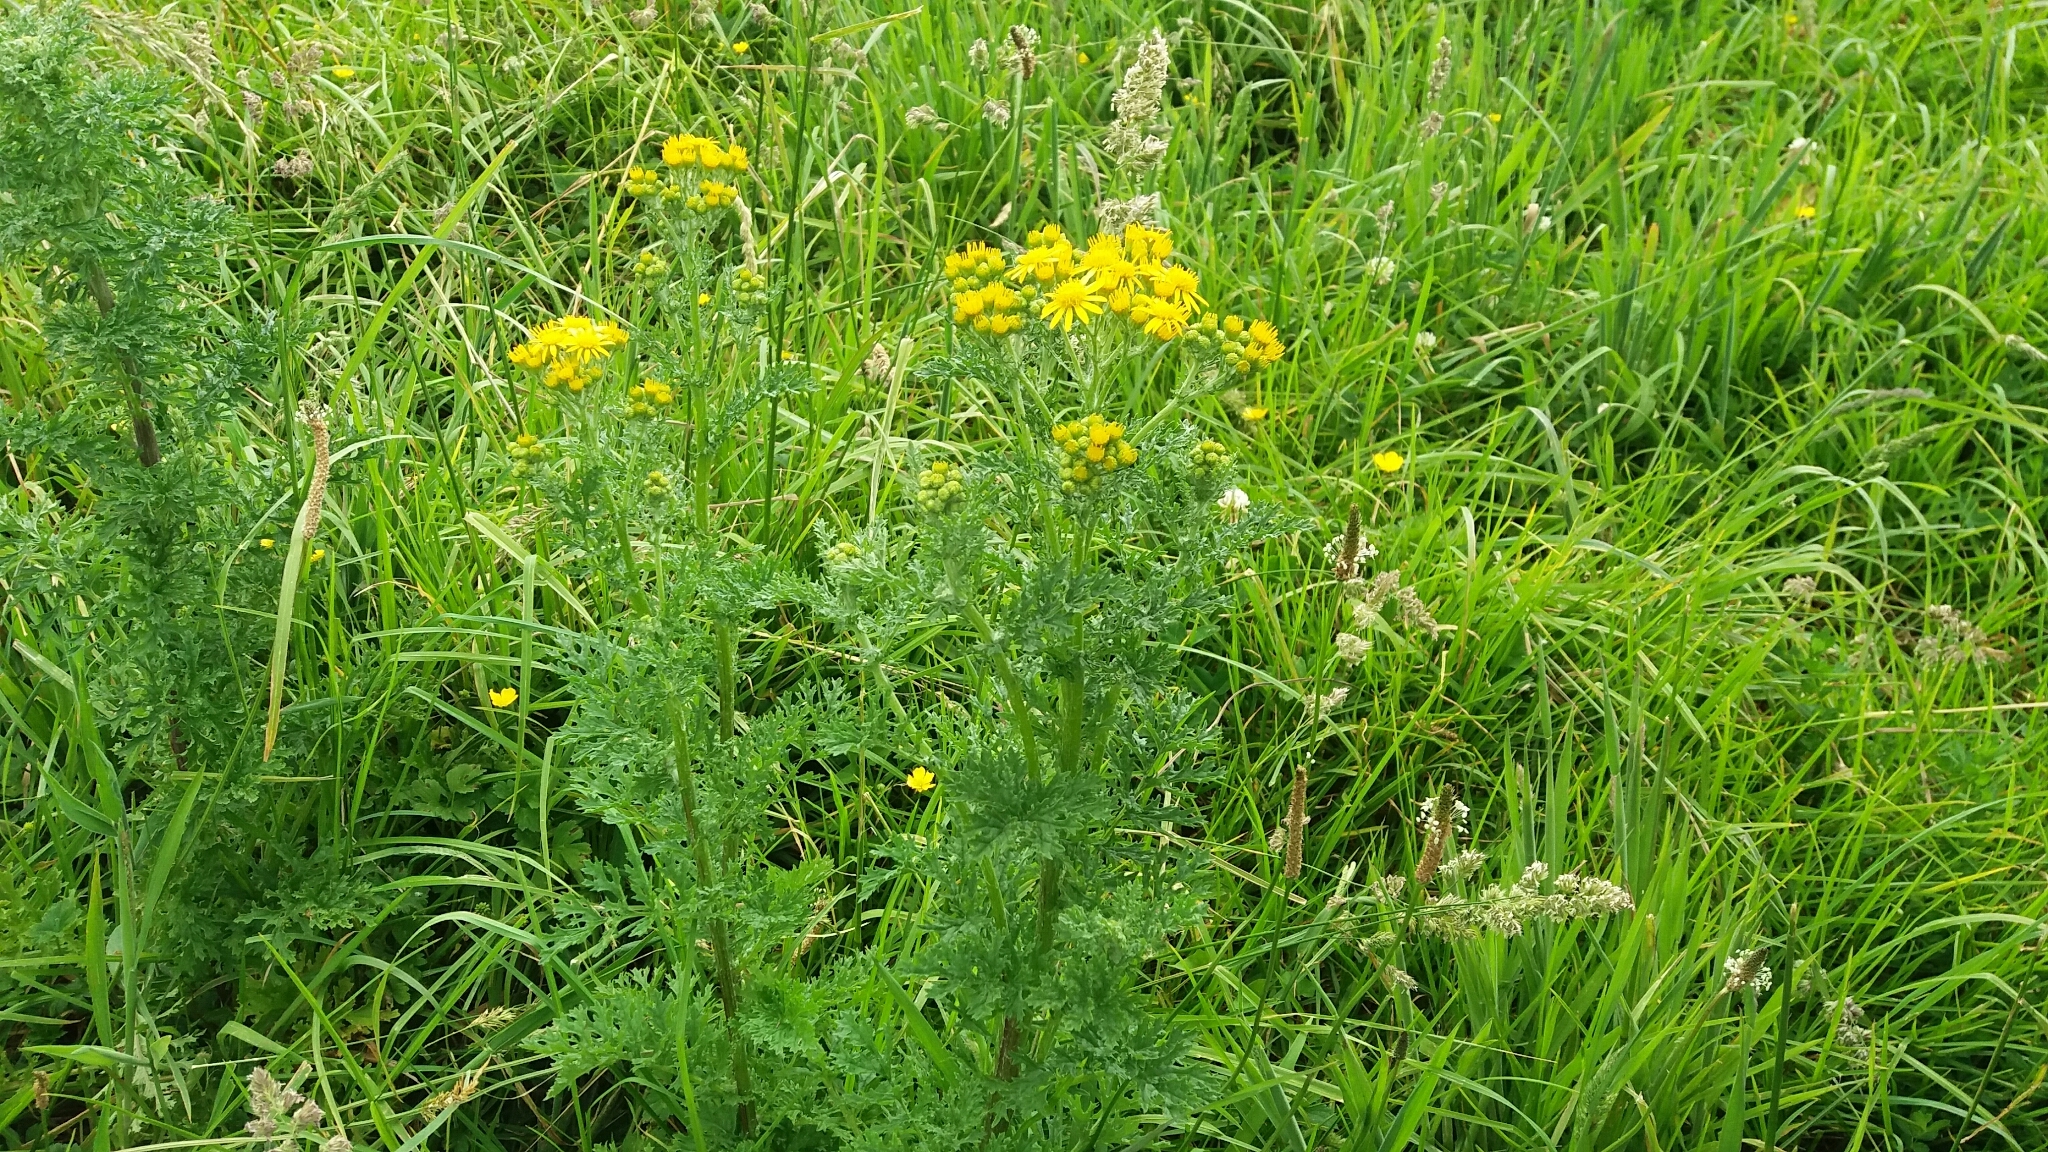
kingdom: Plantae
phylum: Tracheophyta
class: Magnoliopsida
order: Asterales
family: Asteraceae
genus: Jacobaea
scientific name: Jacobaea vulgaris
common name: Stinking willie
